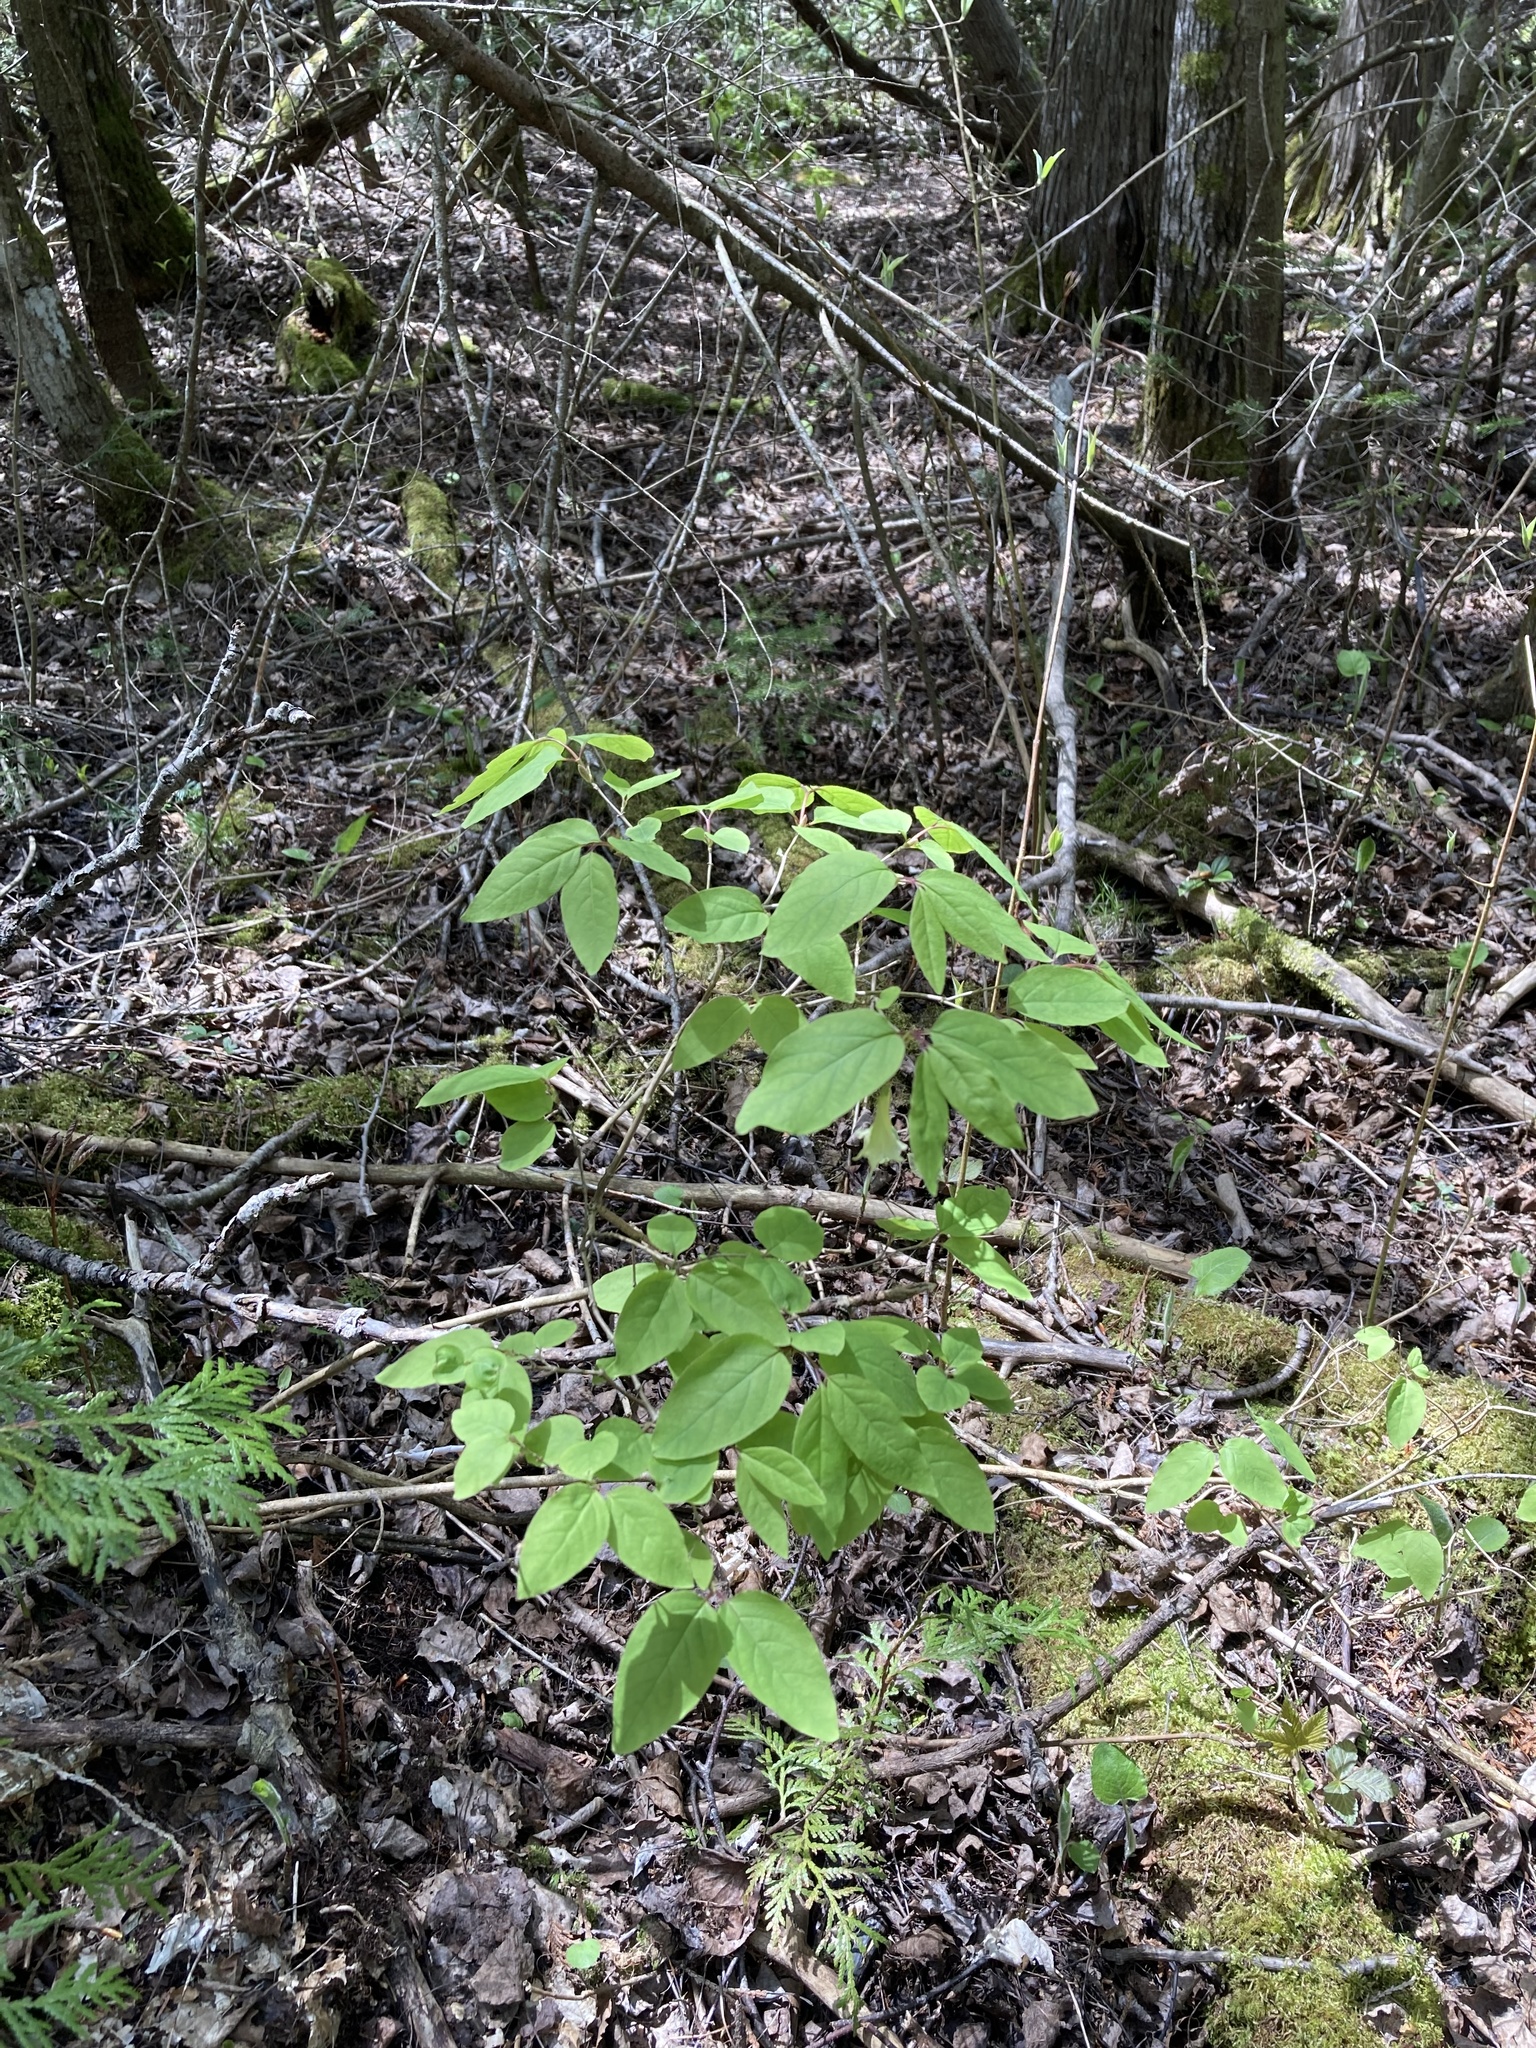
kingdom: Plantae
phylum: Tracheophyta
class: Magnoliopsida
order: Dipsacales
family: Caprifoliaceae
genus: Lonicera
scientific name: Lonicera canadensis
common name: American fly-honeysuckle
